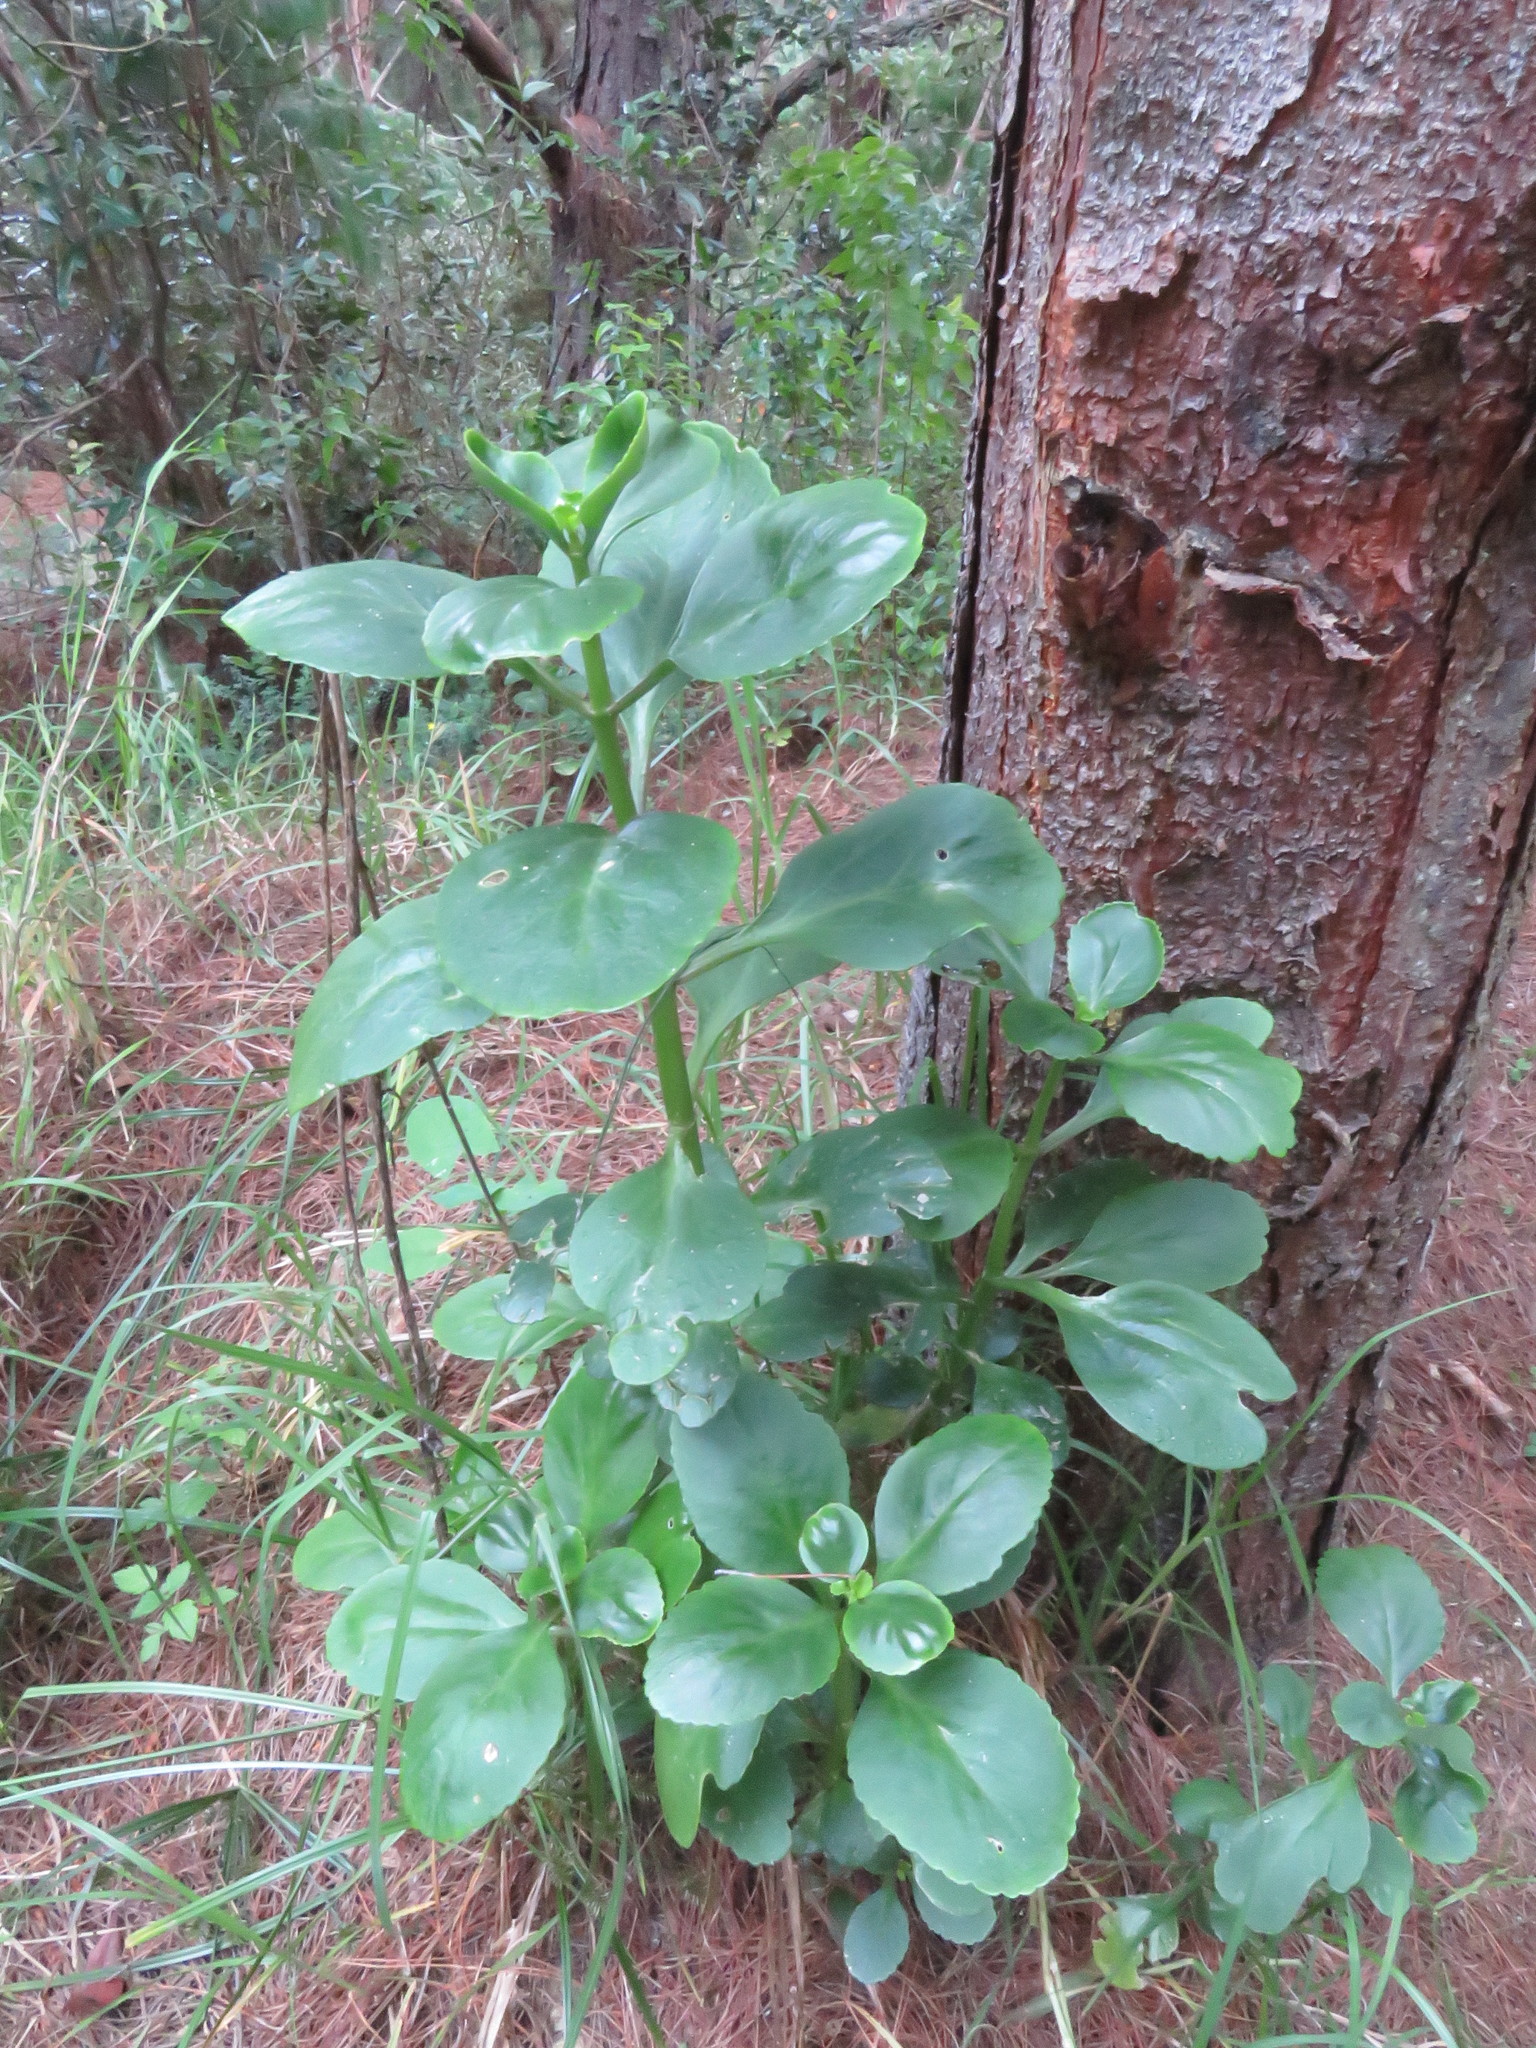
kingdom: Plantae
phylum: Tracheophyta
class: Magnoliopsida
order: Saxifragales
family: Crassulaceae
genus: Kalanchoe
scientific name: Kalanchoe densiflora
